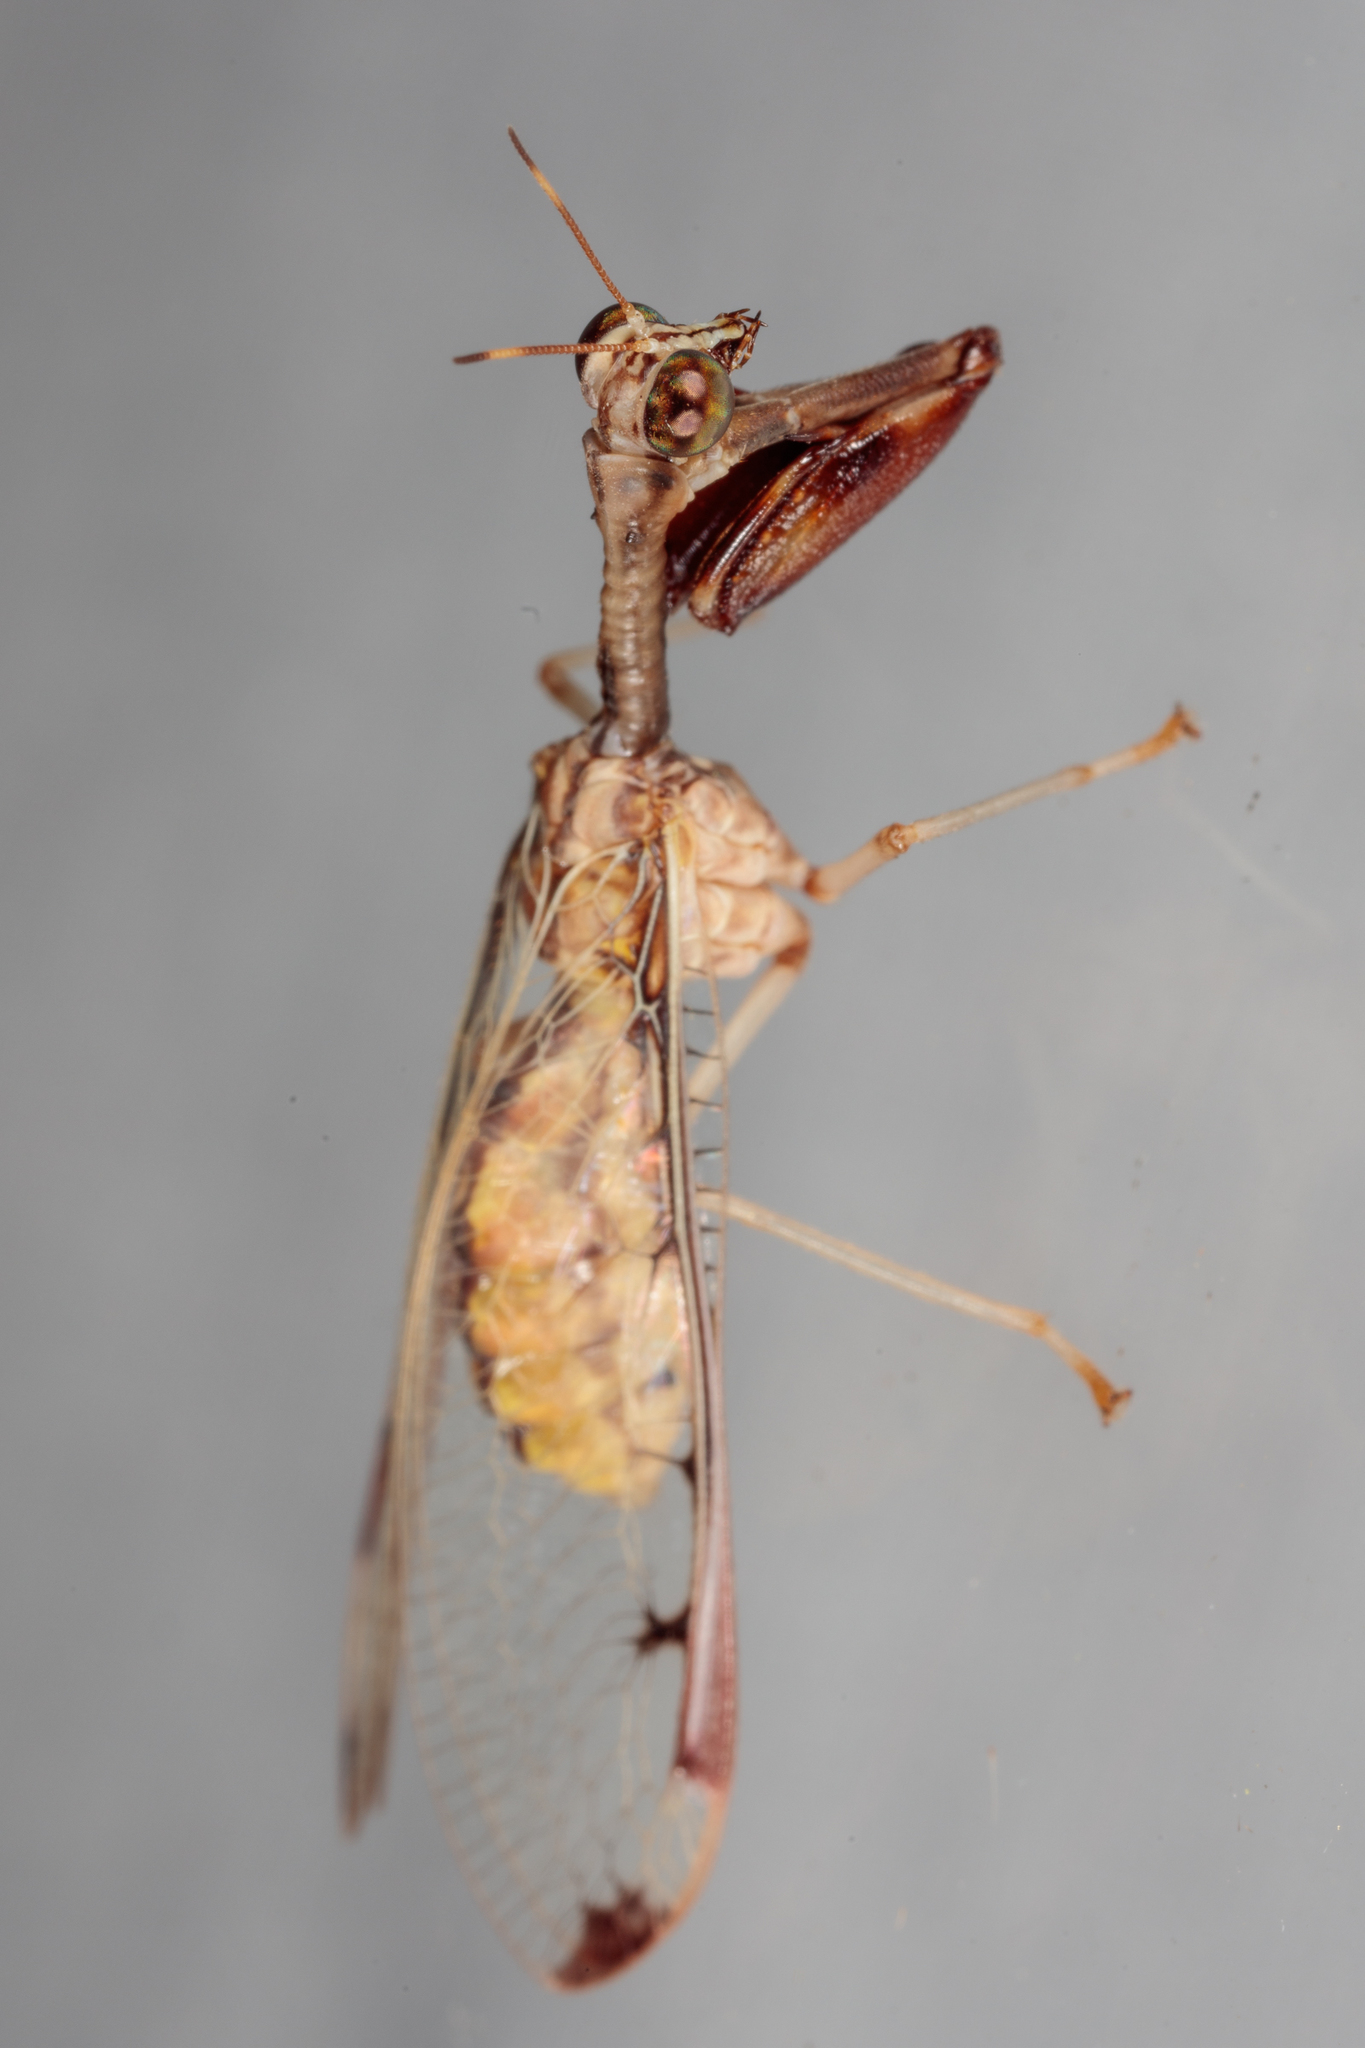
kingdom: Animalia
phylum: Arthropoda
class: Insecta
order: Neuroptera
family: Mantispidae
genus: Dicromantispa
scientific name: Dicromantispa interrupta
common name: Four-spotted mantidfly
